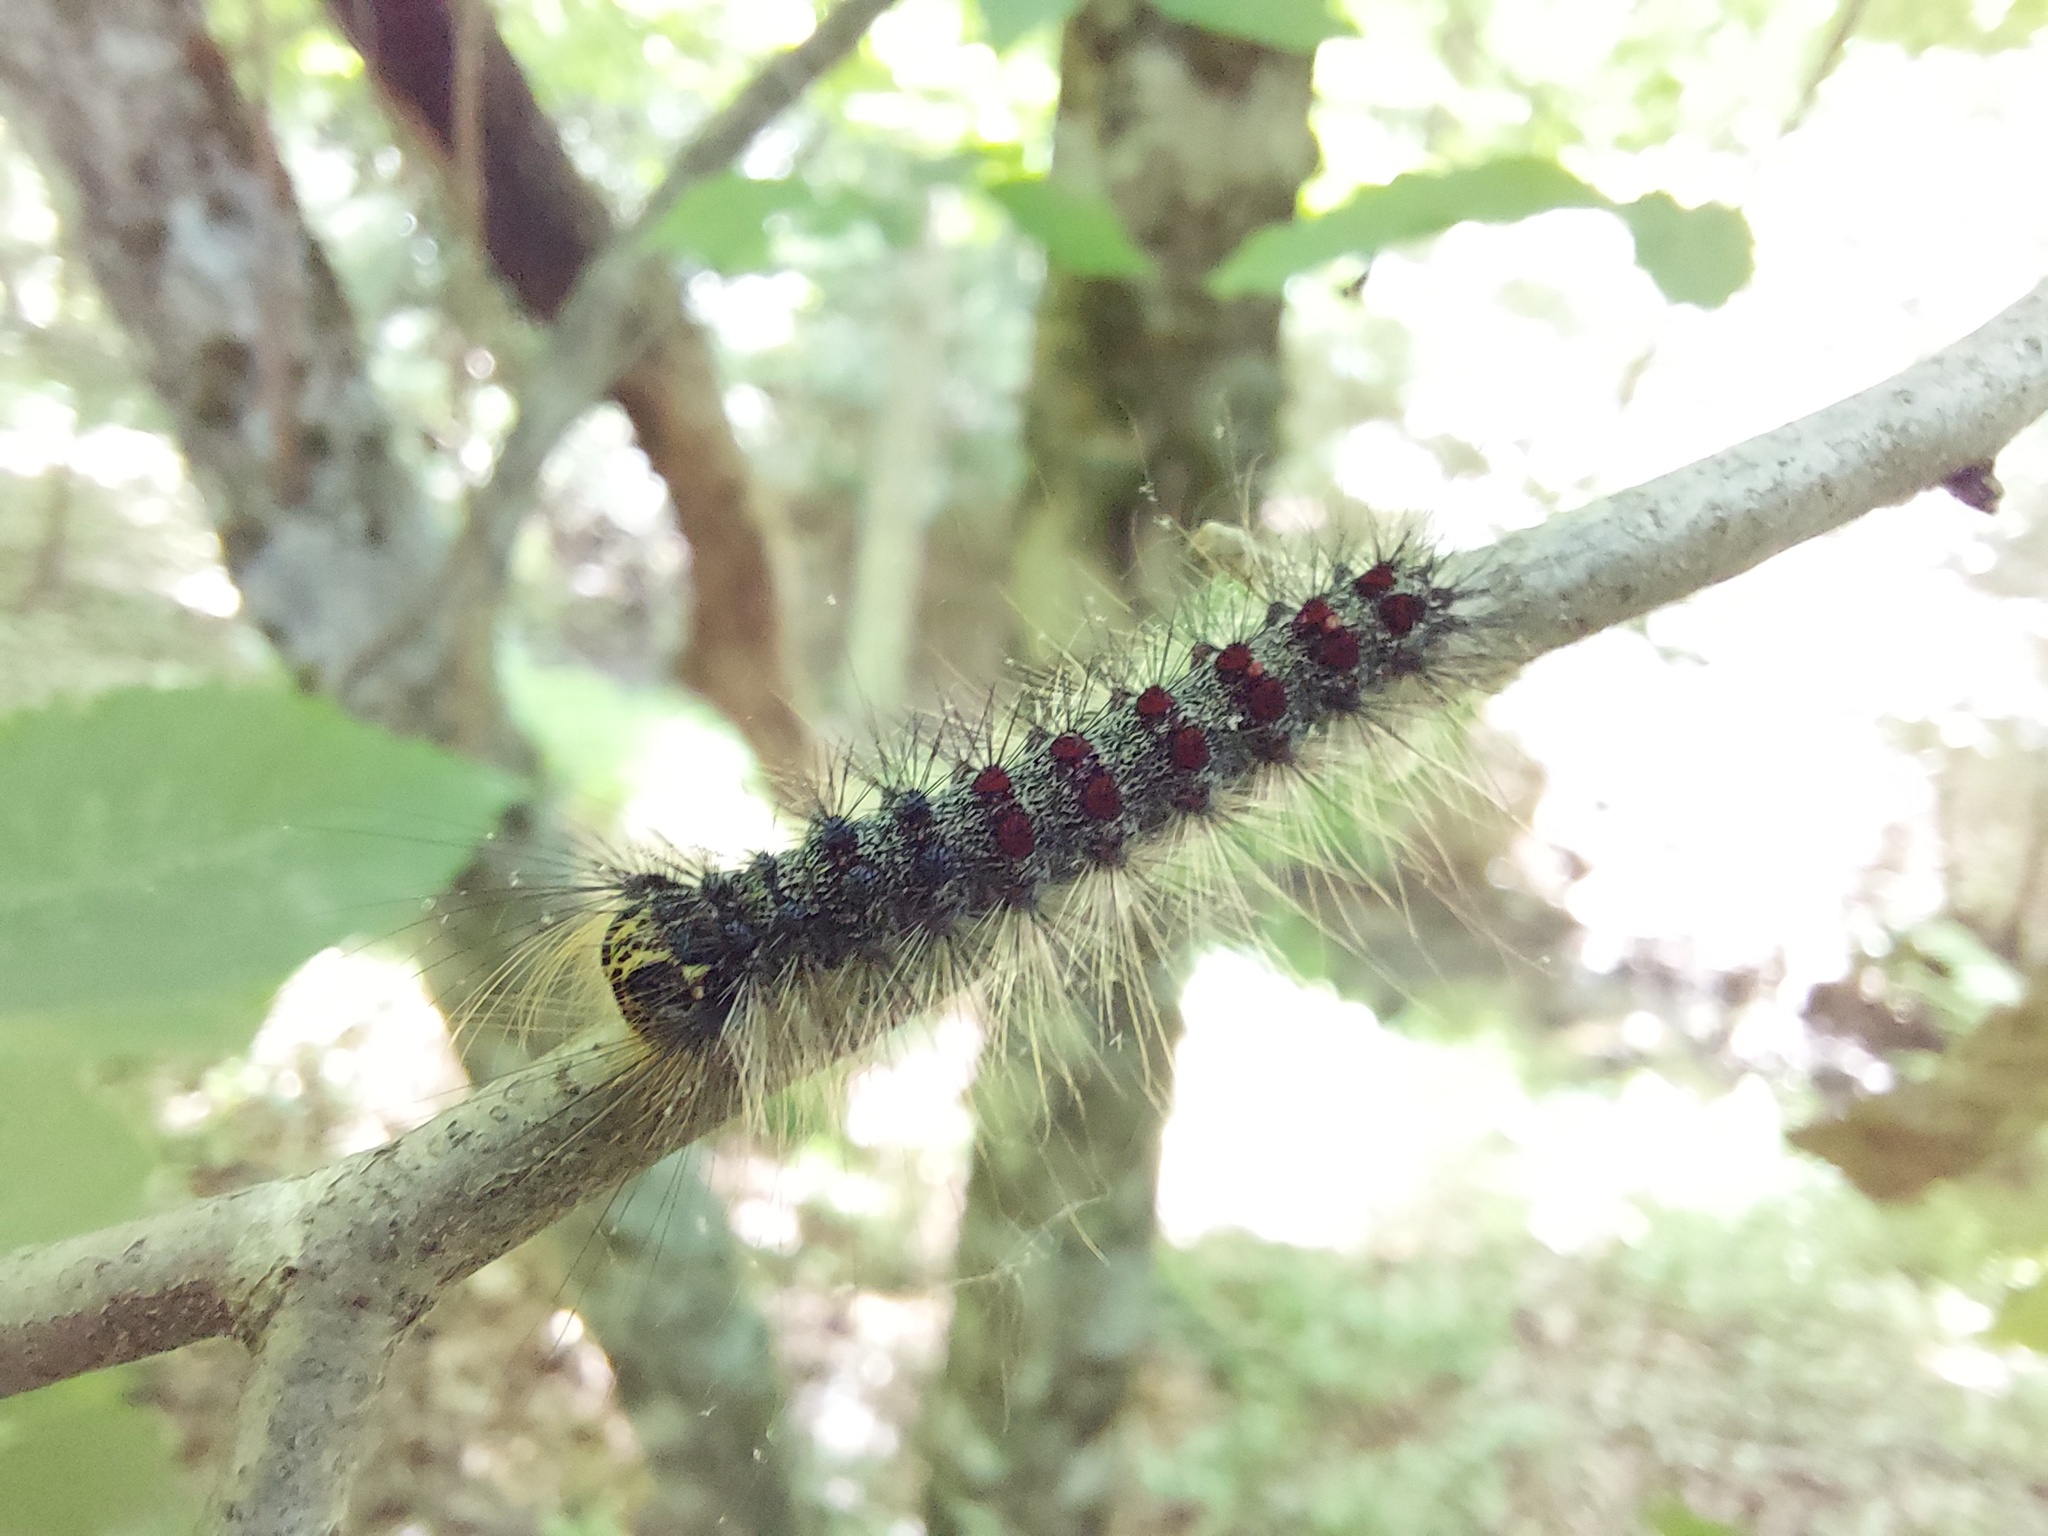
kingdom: Animalia
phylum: Arthropoda
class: Insecta
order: Lepidoptera
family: Erebidae
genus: Lymantria
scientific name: Lymantria dispar
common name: Gypsy moth
